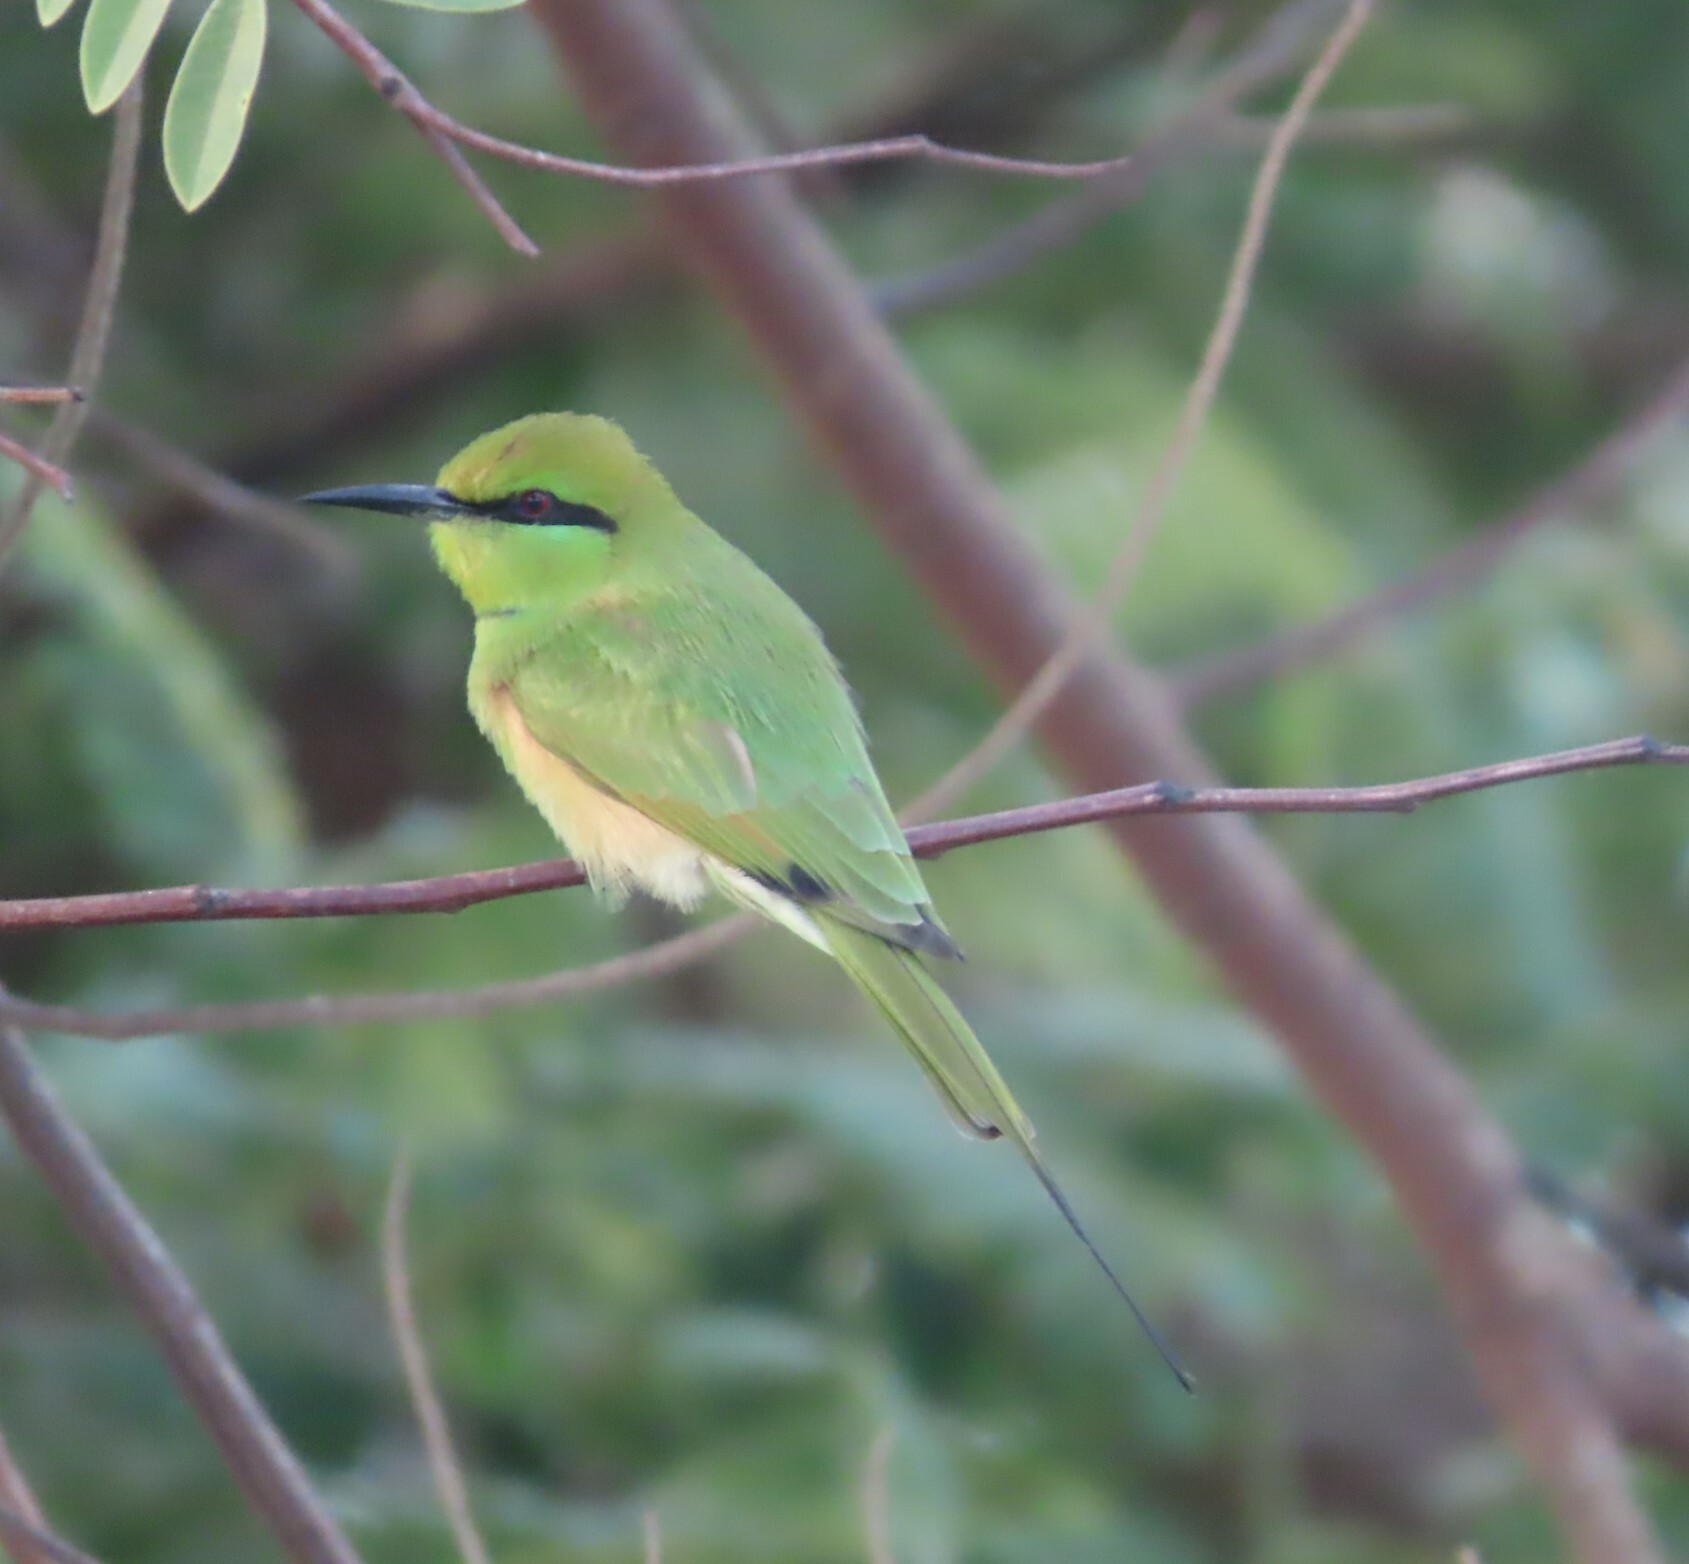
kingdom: Animalia
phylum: Chordata
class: Aves
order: Coraciiformes
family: Meropidae
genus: Merops
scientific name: Merops viridissimus
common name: African green bee-eater
